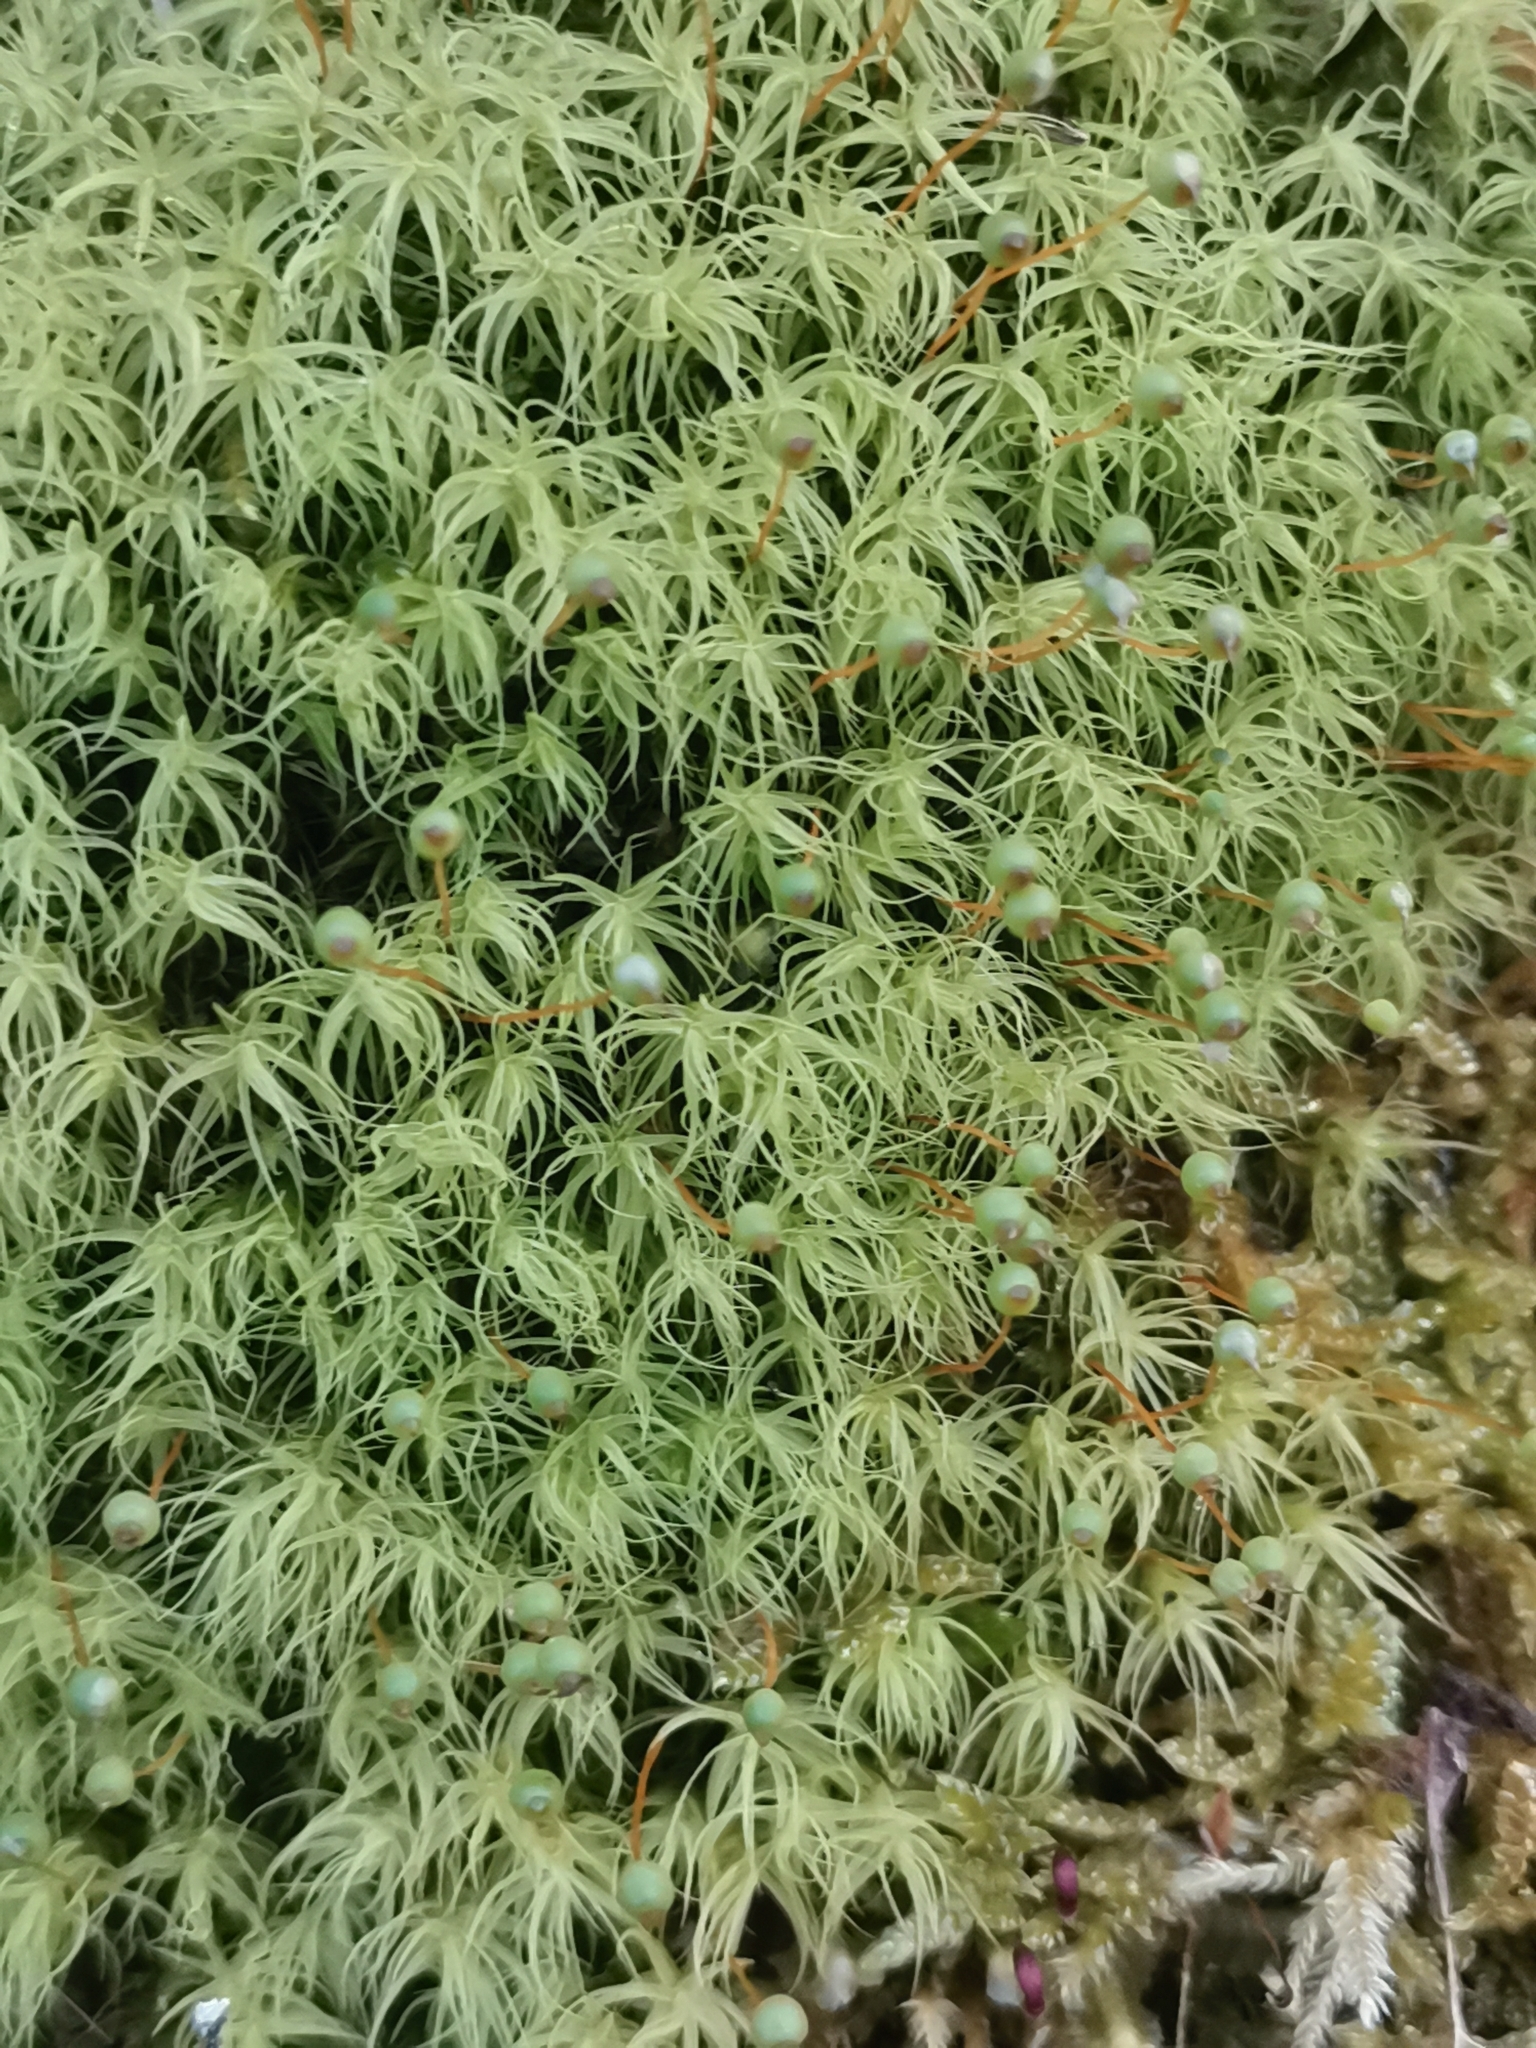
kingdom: Plantae
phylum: Bryophyta
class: Bryopsida
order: Bartramiales
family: Bartramiaceae
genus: Bartramia
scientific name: Bartramia ithyphylla
